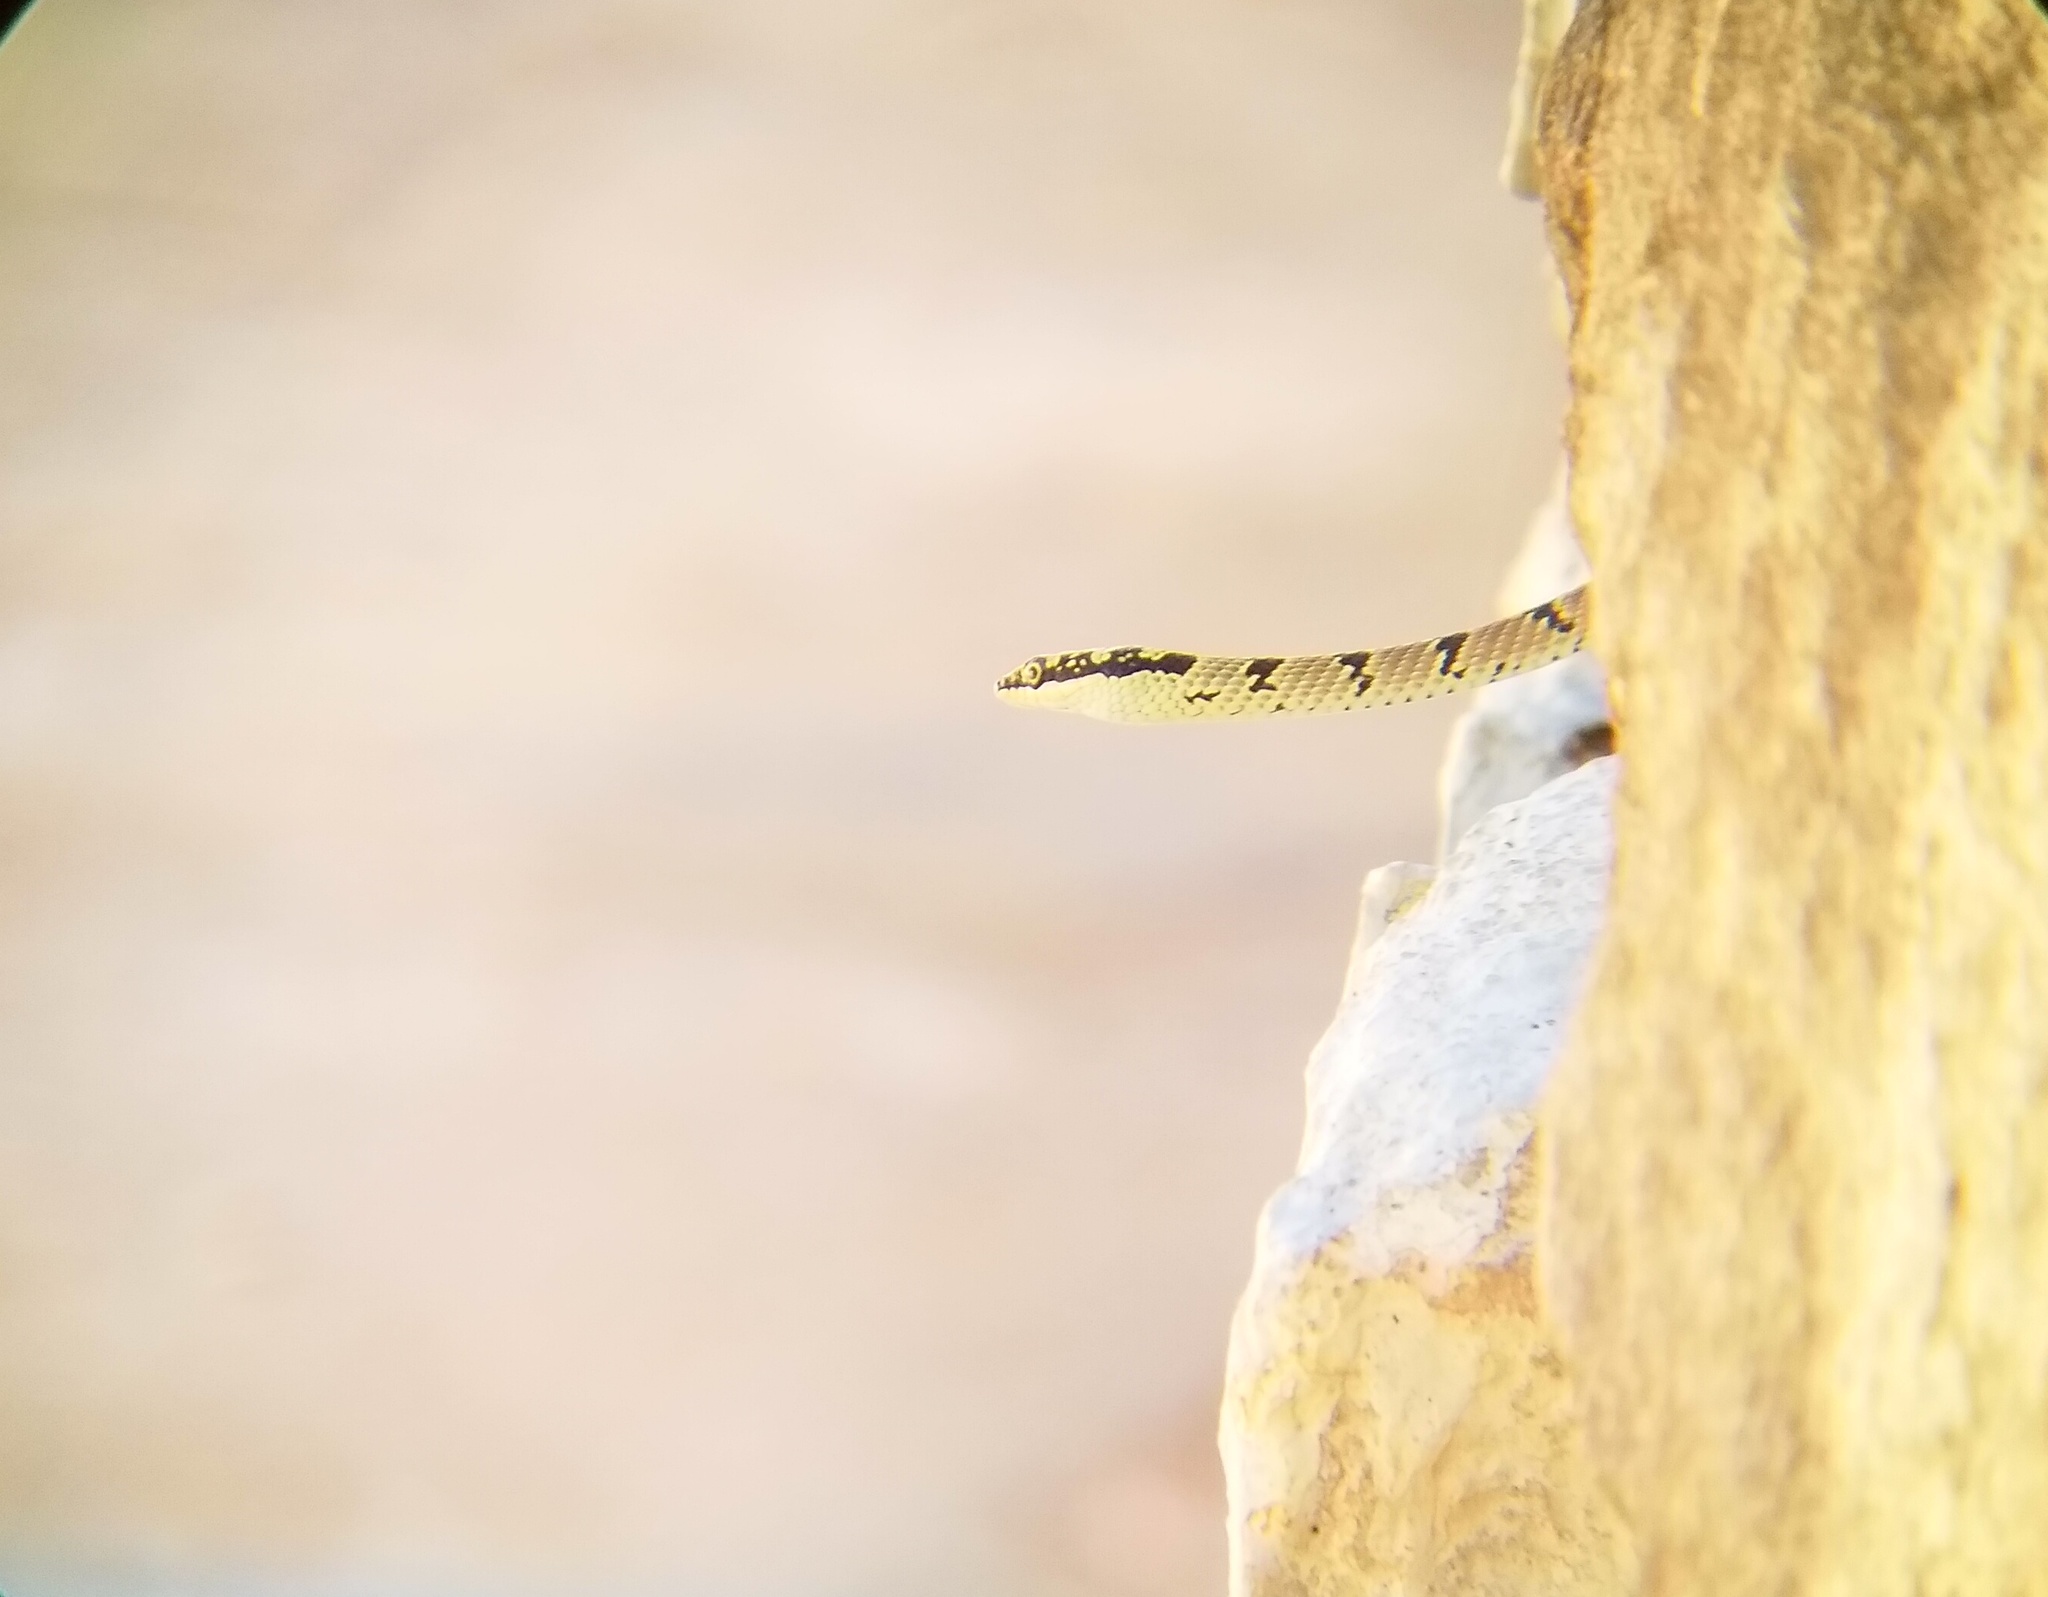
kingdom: Animalia
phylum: Chordata
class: Squamata
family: Colubridae
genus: Chrysopelea
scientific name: Chrysopelea taprobanica
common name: Indian flying snake
